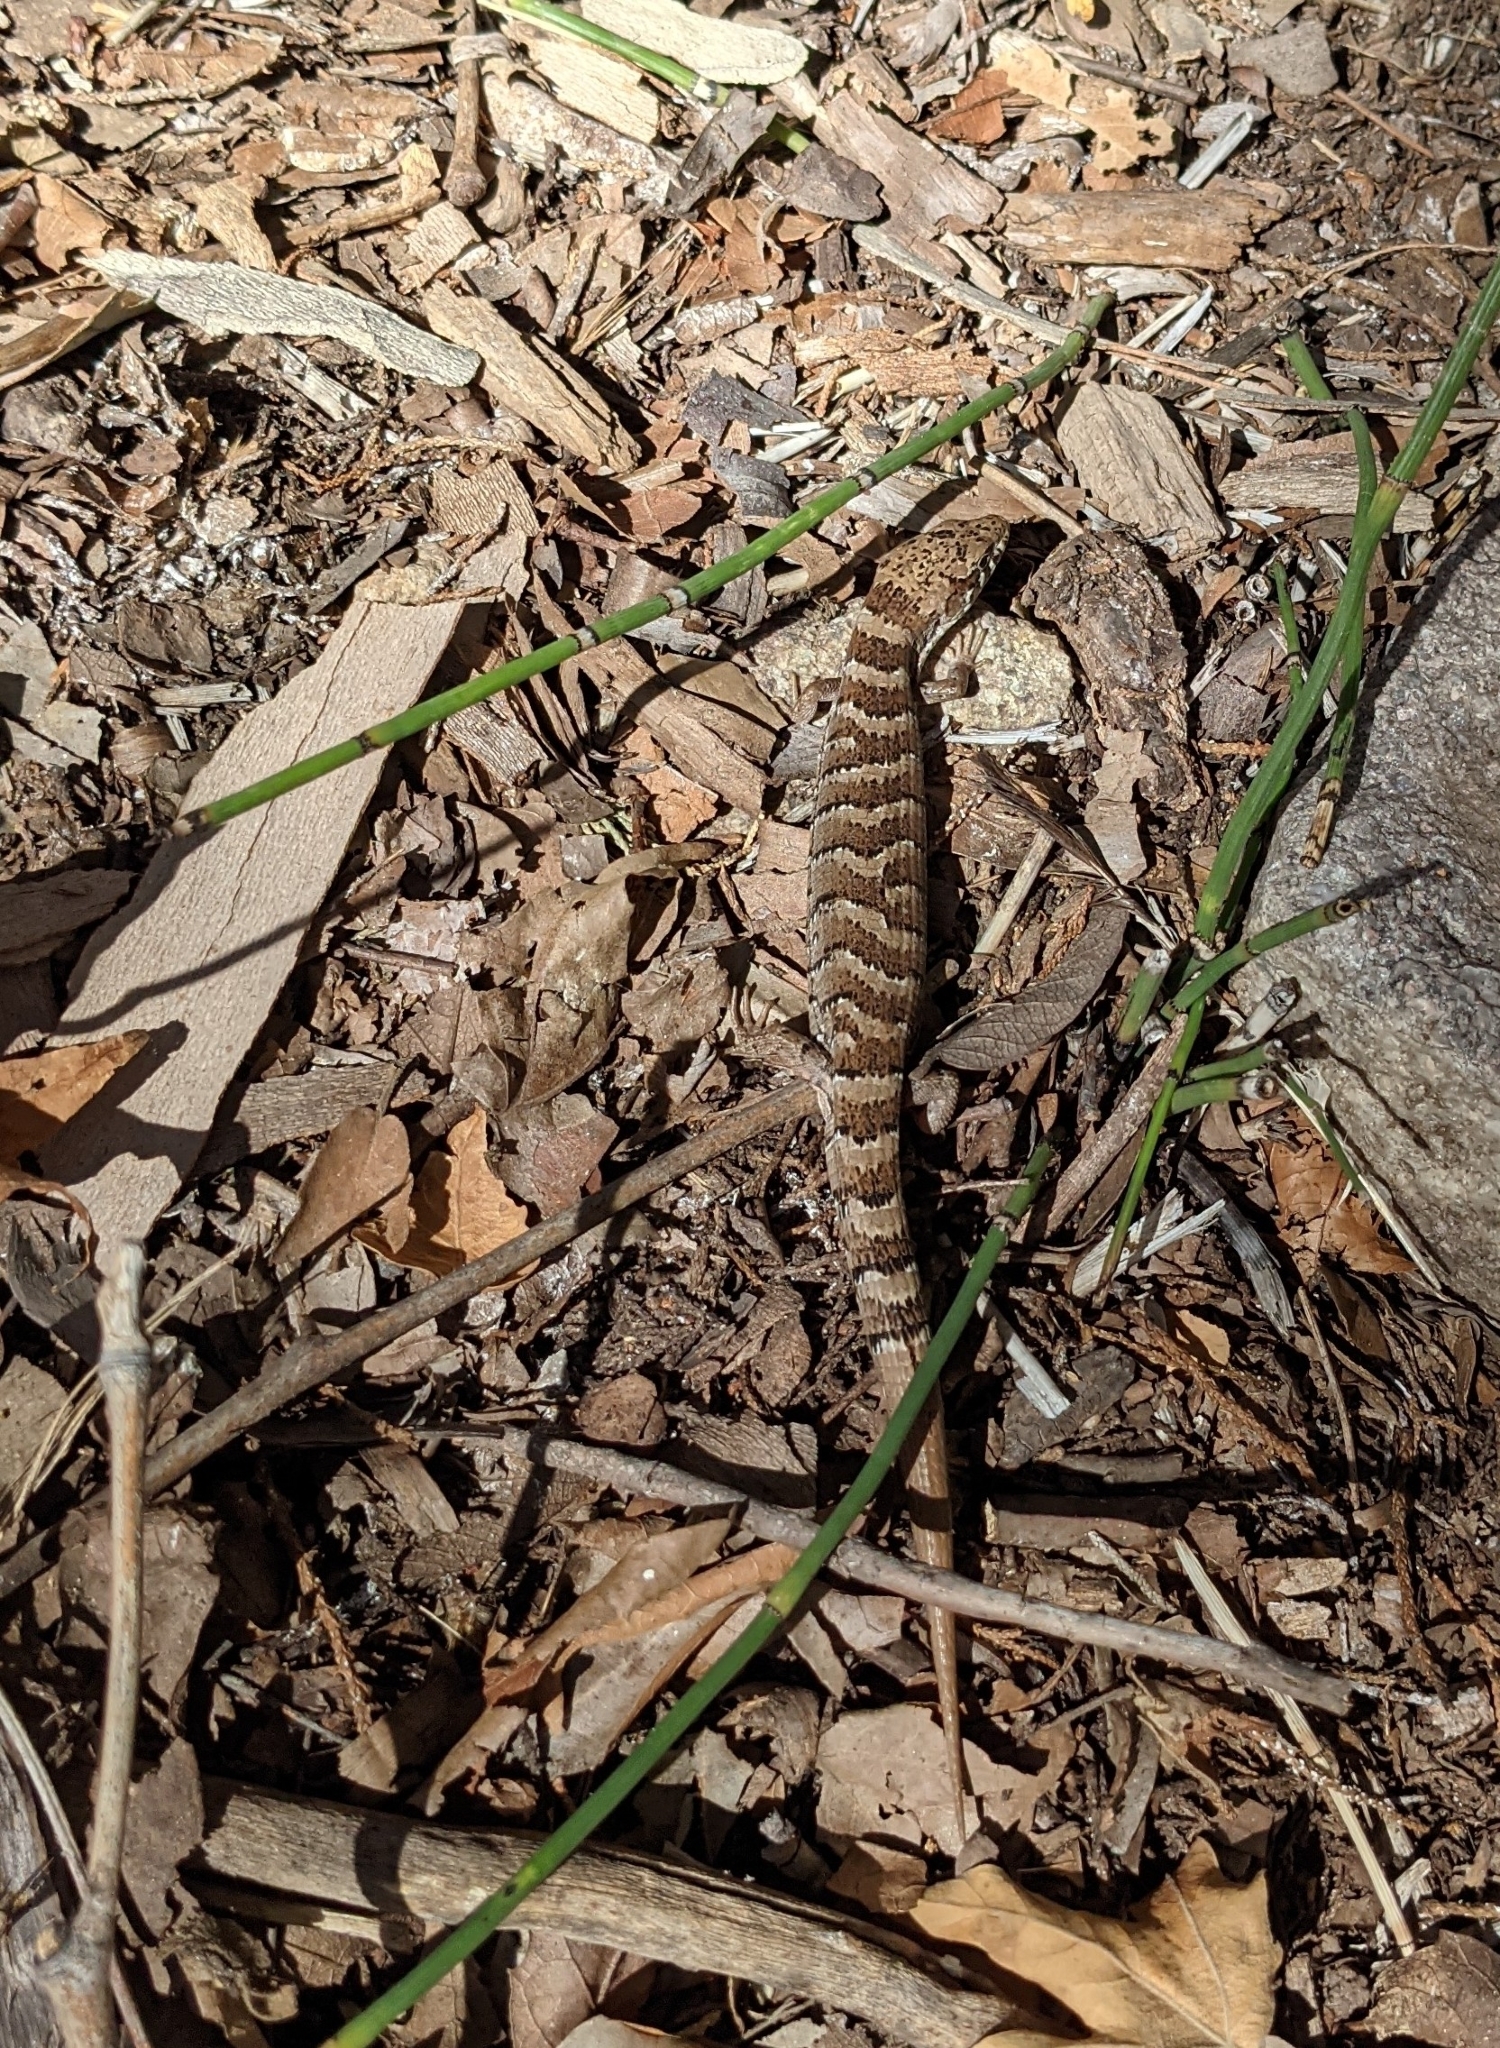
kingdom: Animalia
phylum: Chordata
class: Squamata
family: Anguidae
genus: Elgaria
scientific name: Elgaria kingii
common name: Madrean alligator lizard
